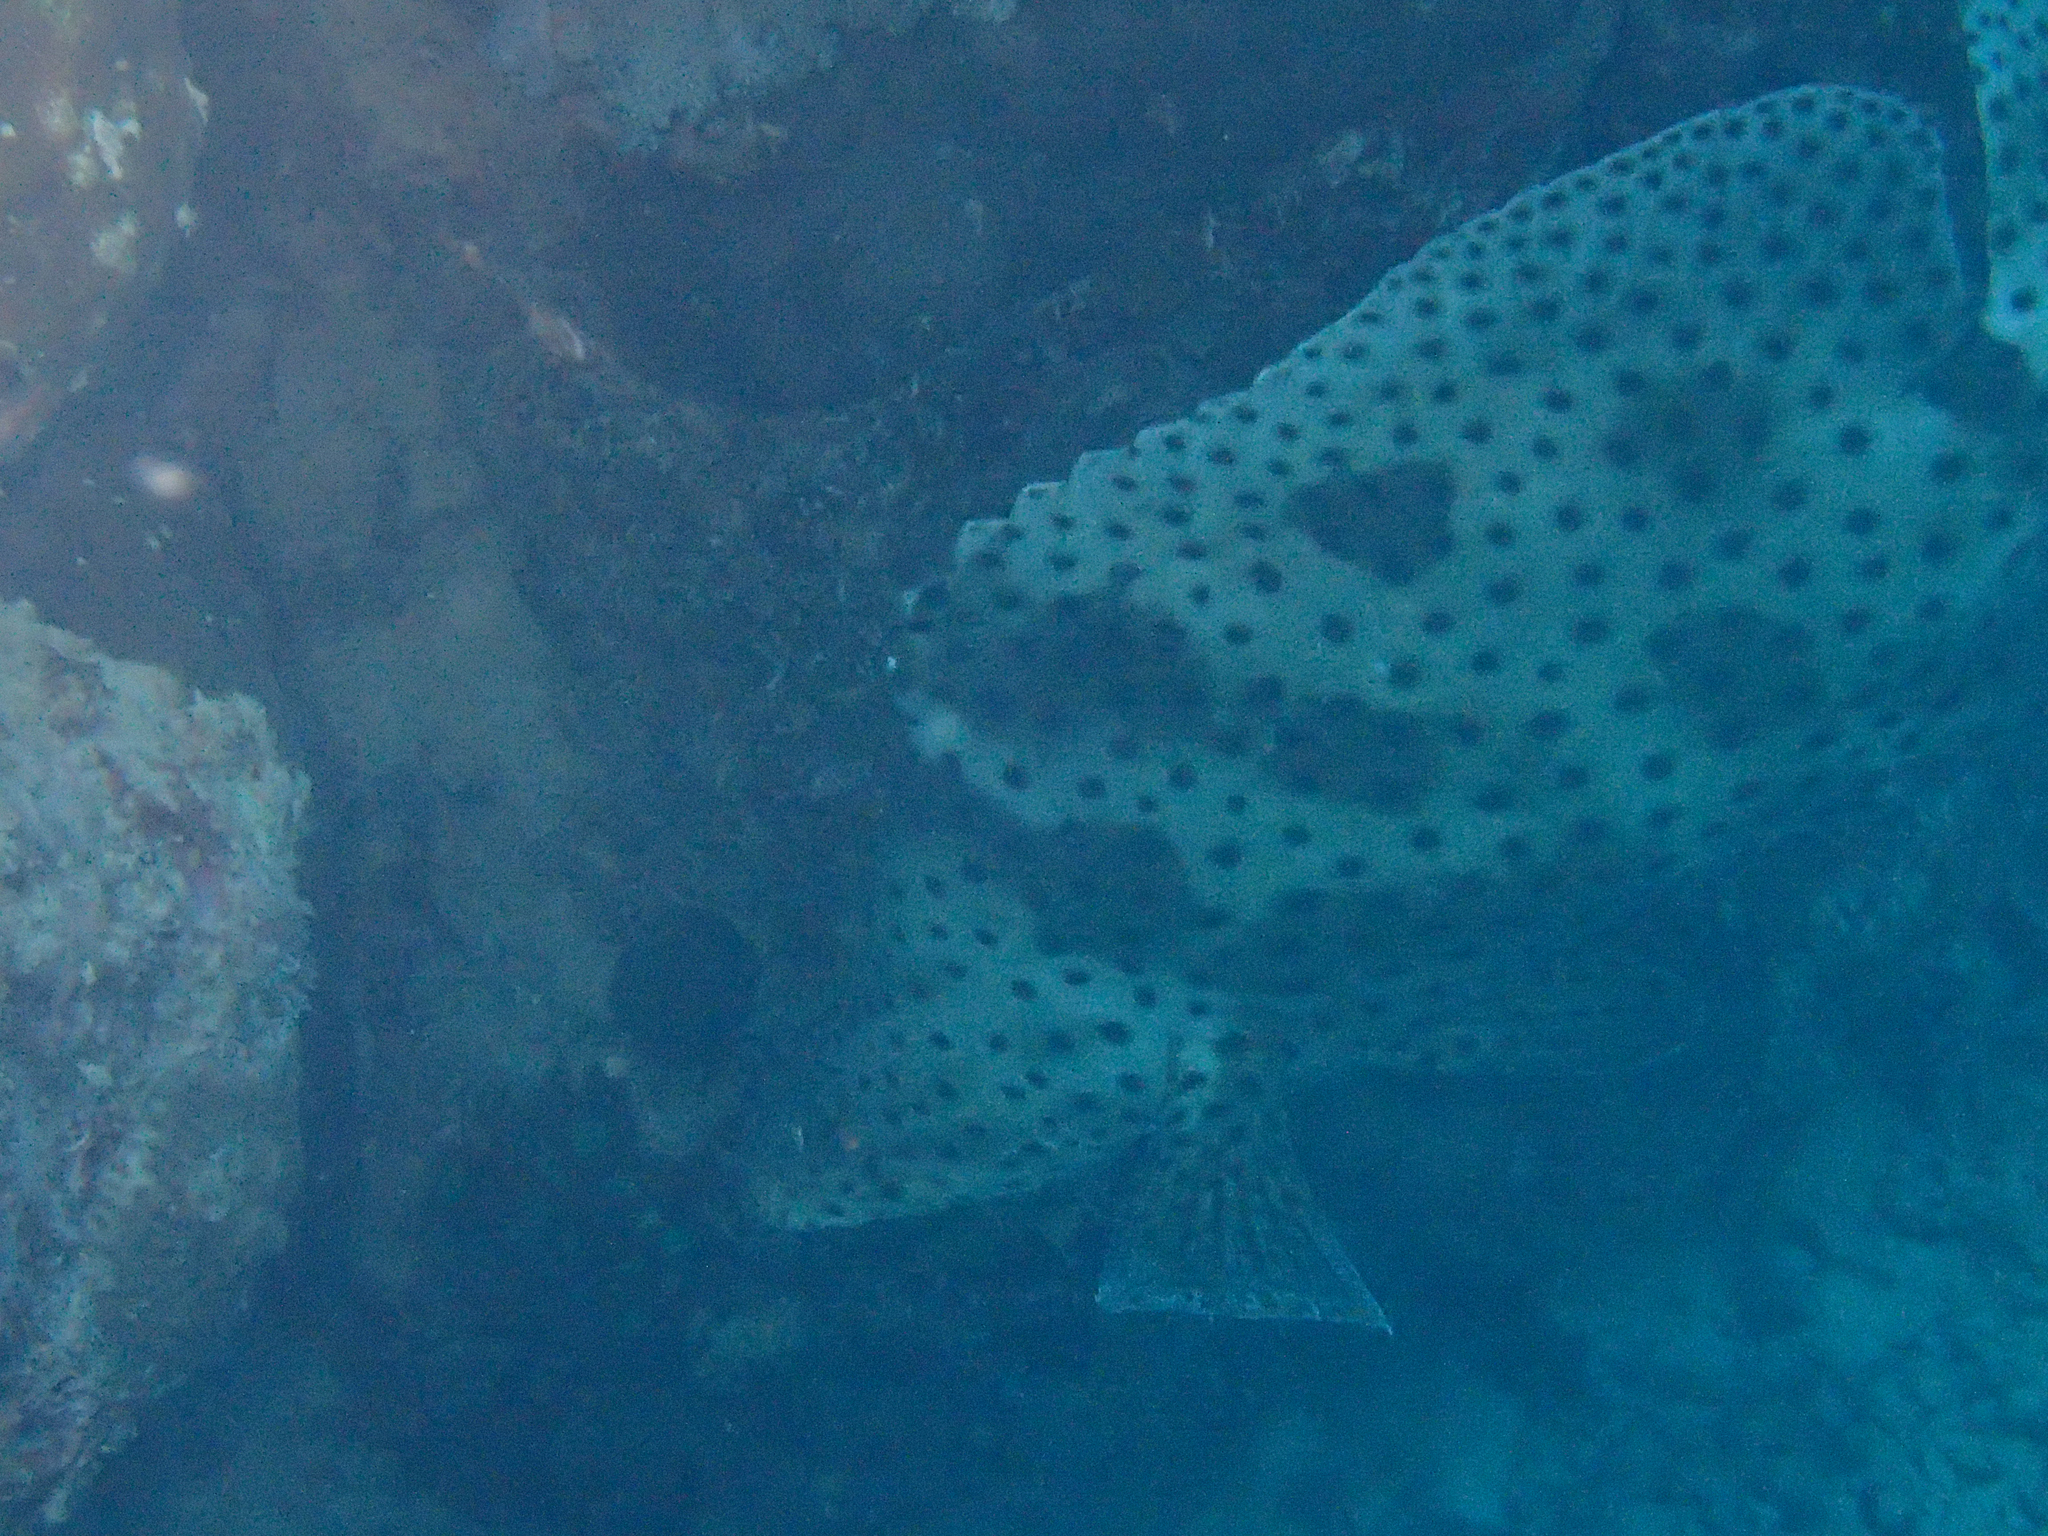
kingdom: Animalia
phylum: Chordata
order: Perciformes
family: Serranidae
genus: Cromileptes
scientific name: Cromileptes altivelis
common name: Humpback grouper
